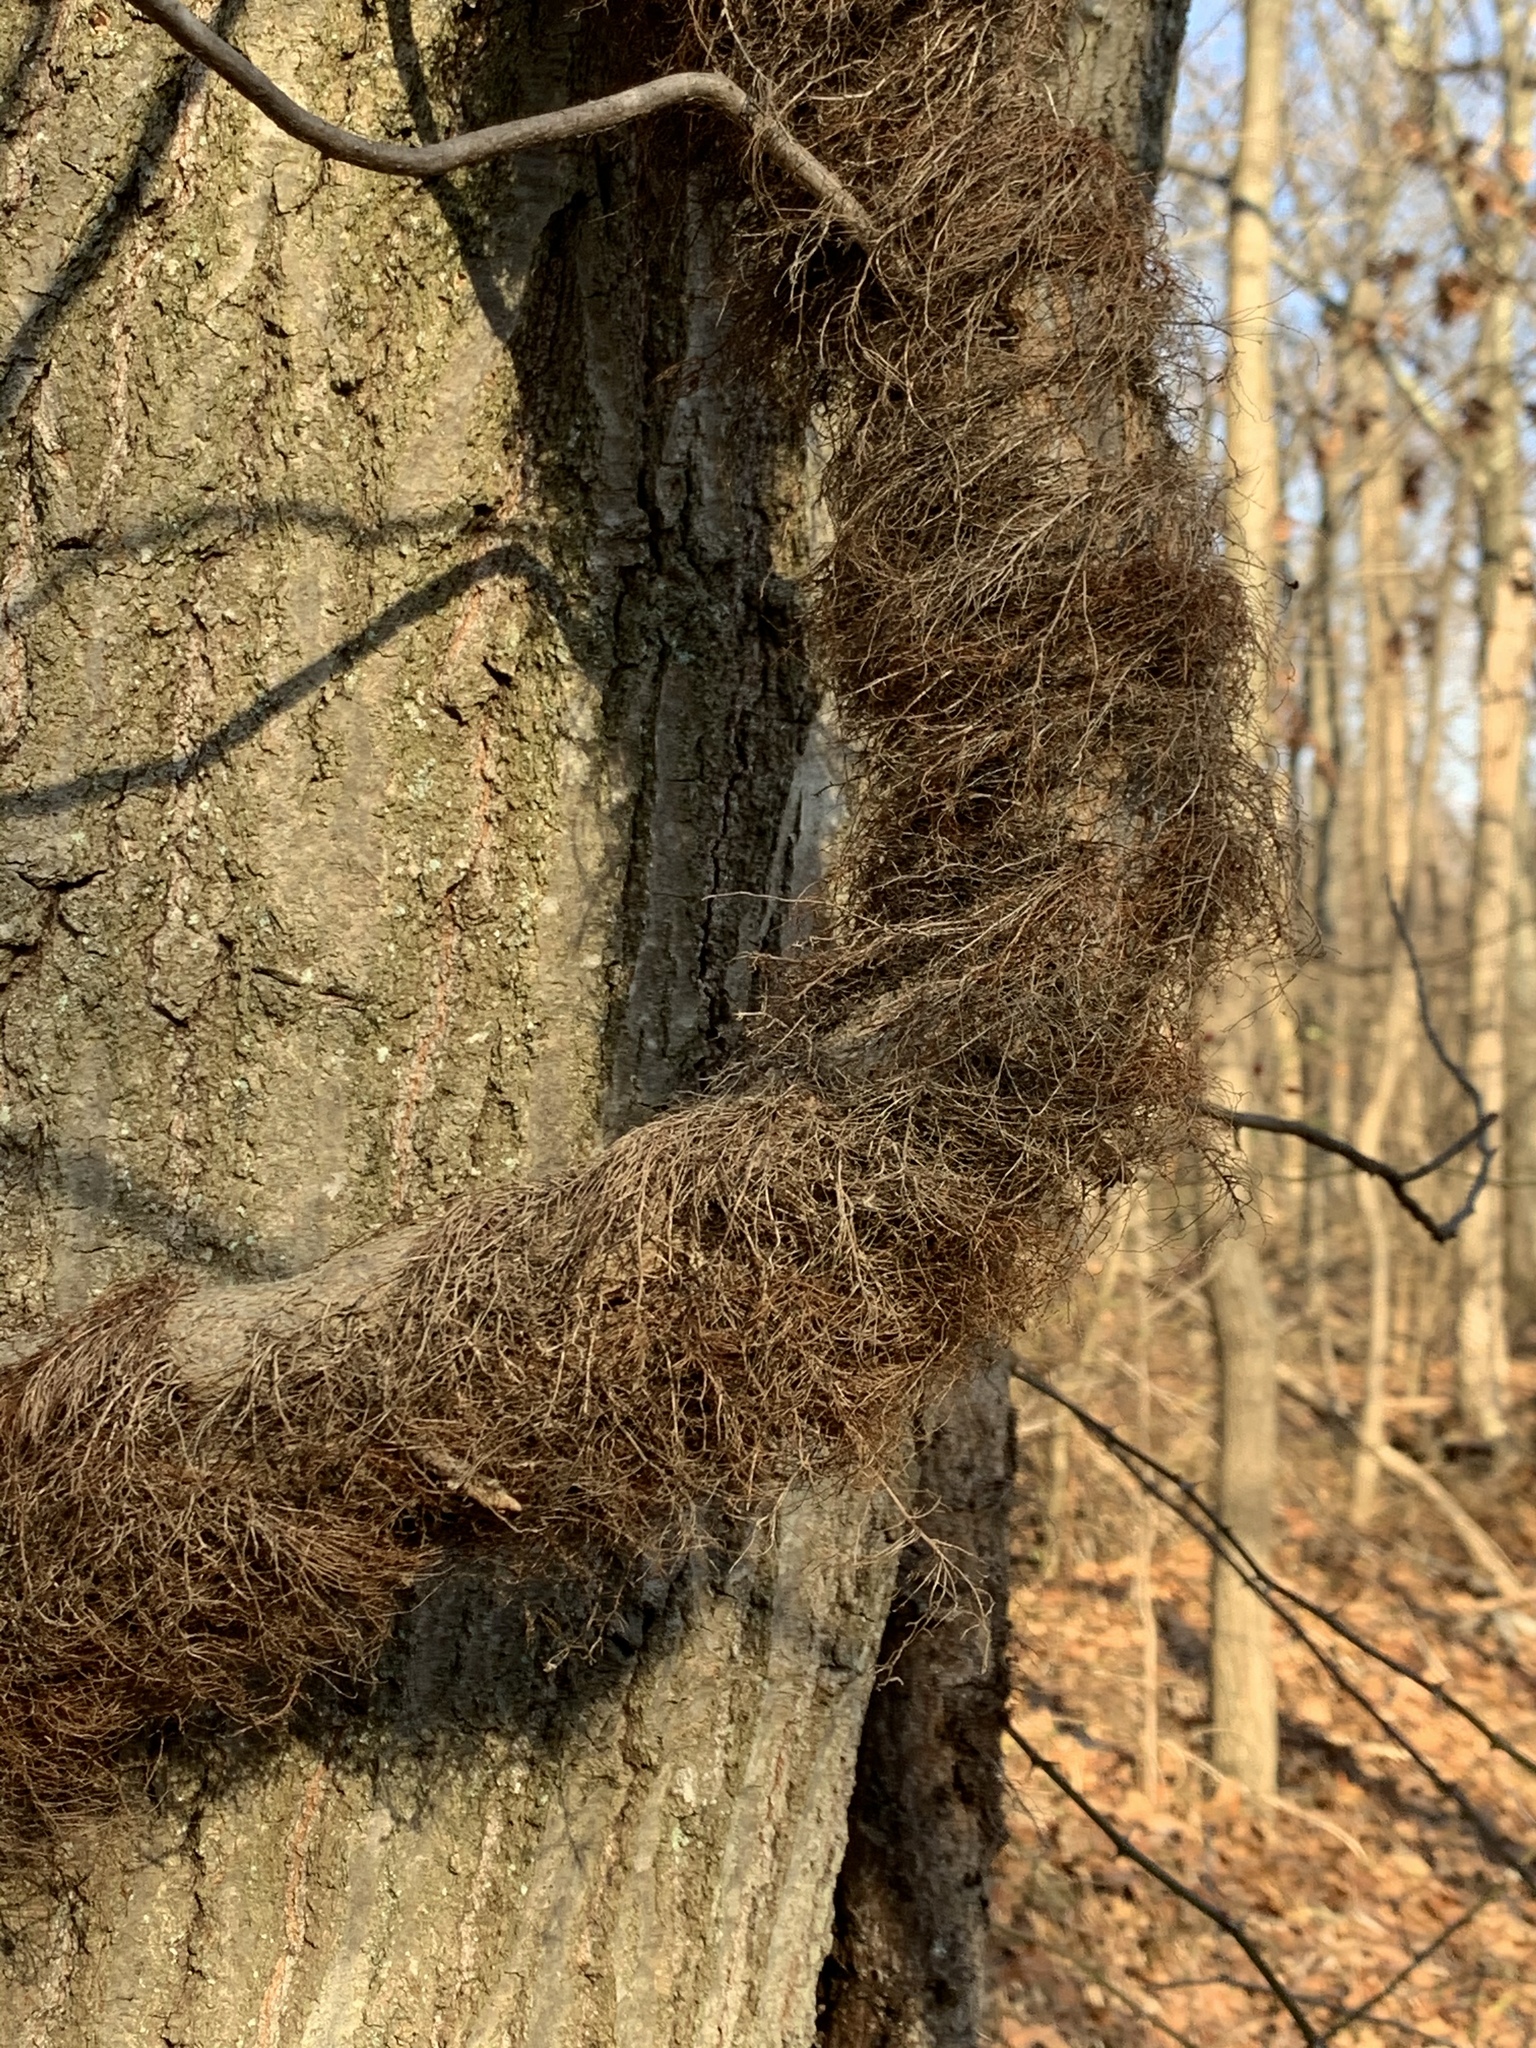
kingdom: Plantae
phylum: Tracheophyta
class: Magnoliopsida
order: Sapindales
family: Anacardiaceae
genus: Toxicodendron
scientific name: Toxicodendron radicans
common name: Poison ivy
